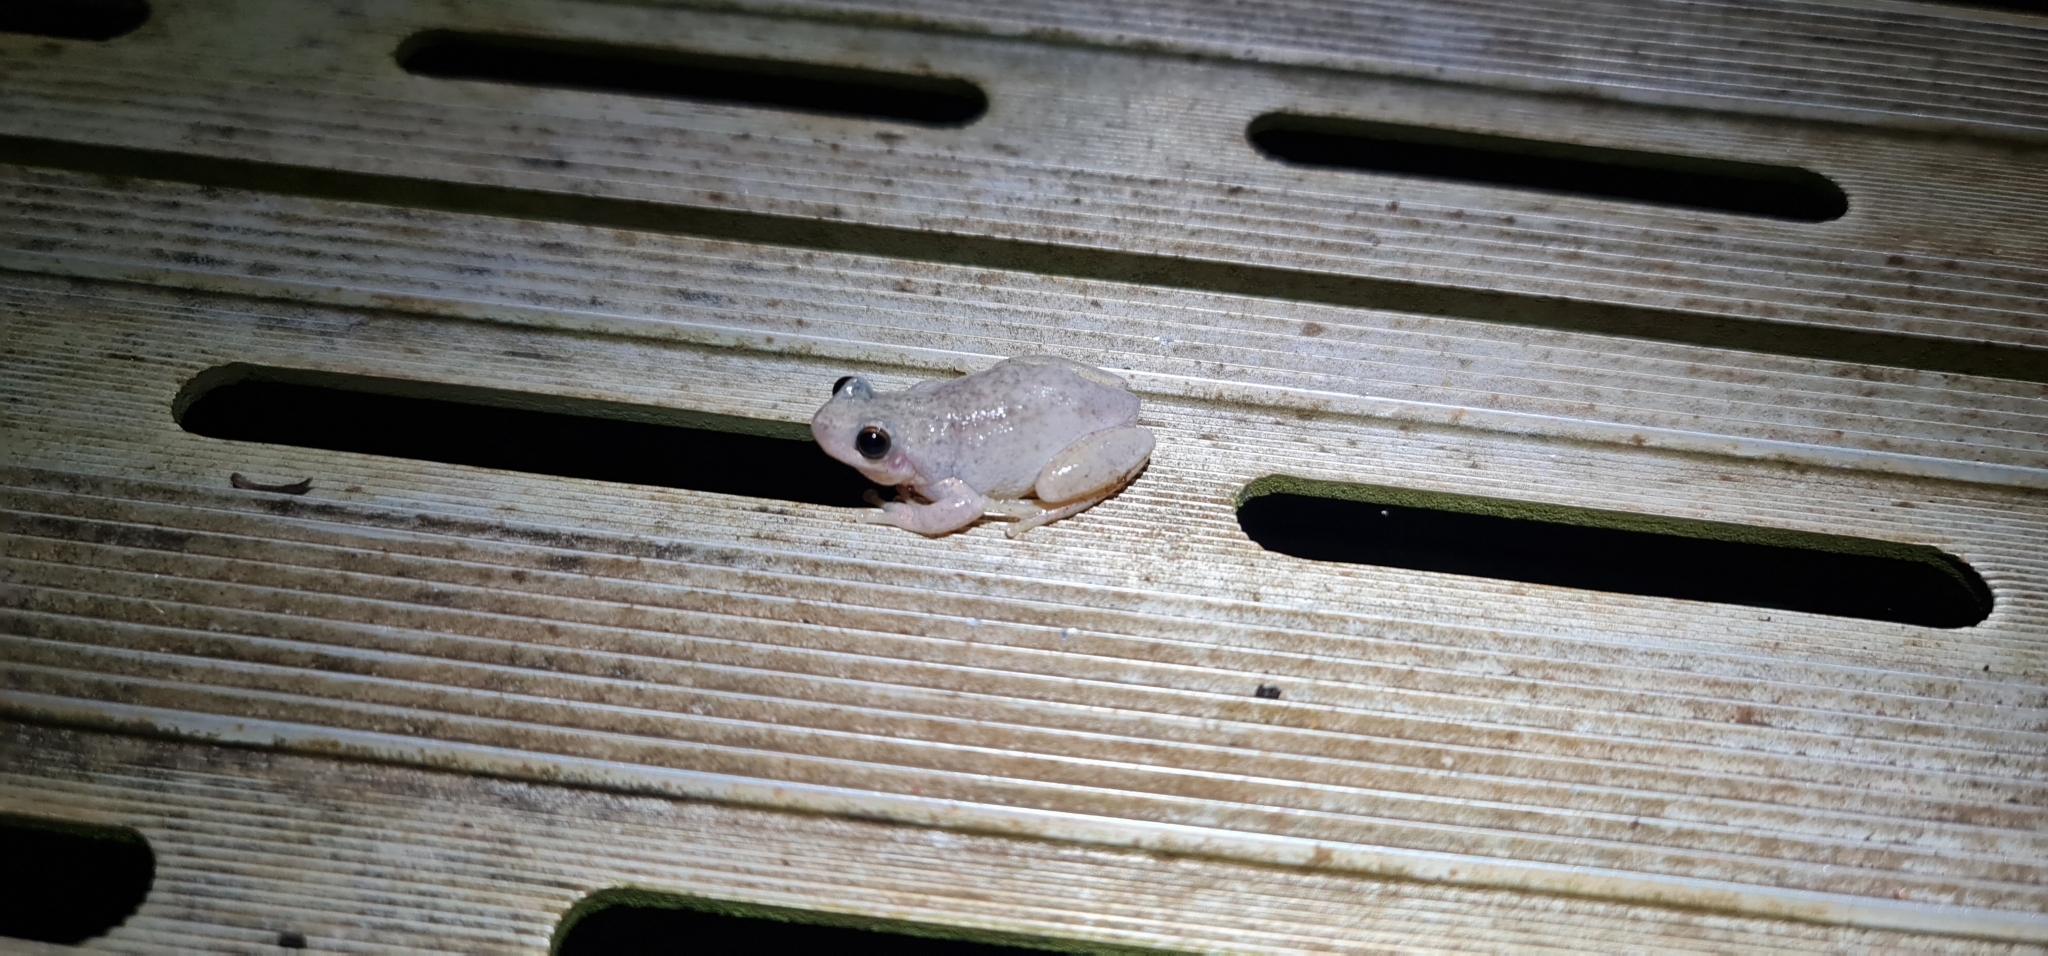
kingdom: Animalia
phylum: Chordata
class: Amphibia
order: Anura
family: Pelodryadidae
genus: Litoria
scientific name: Litoria rubella
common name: Desert tree frog
